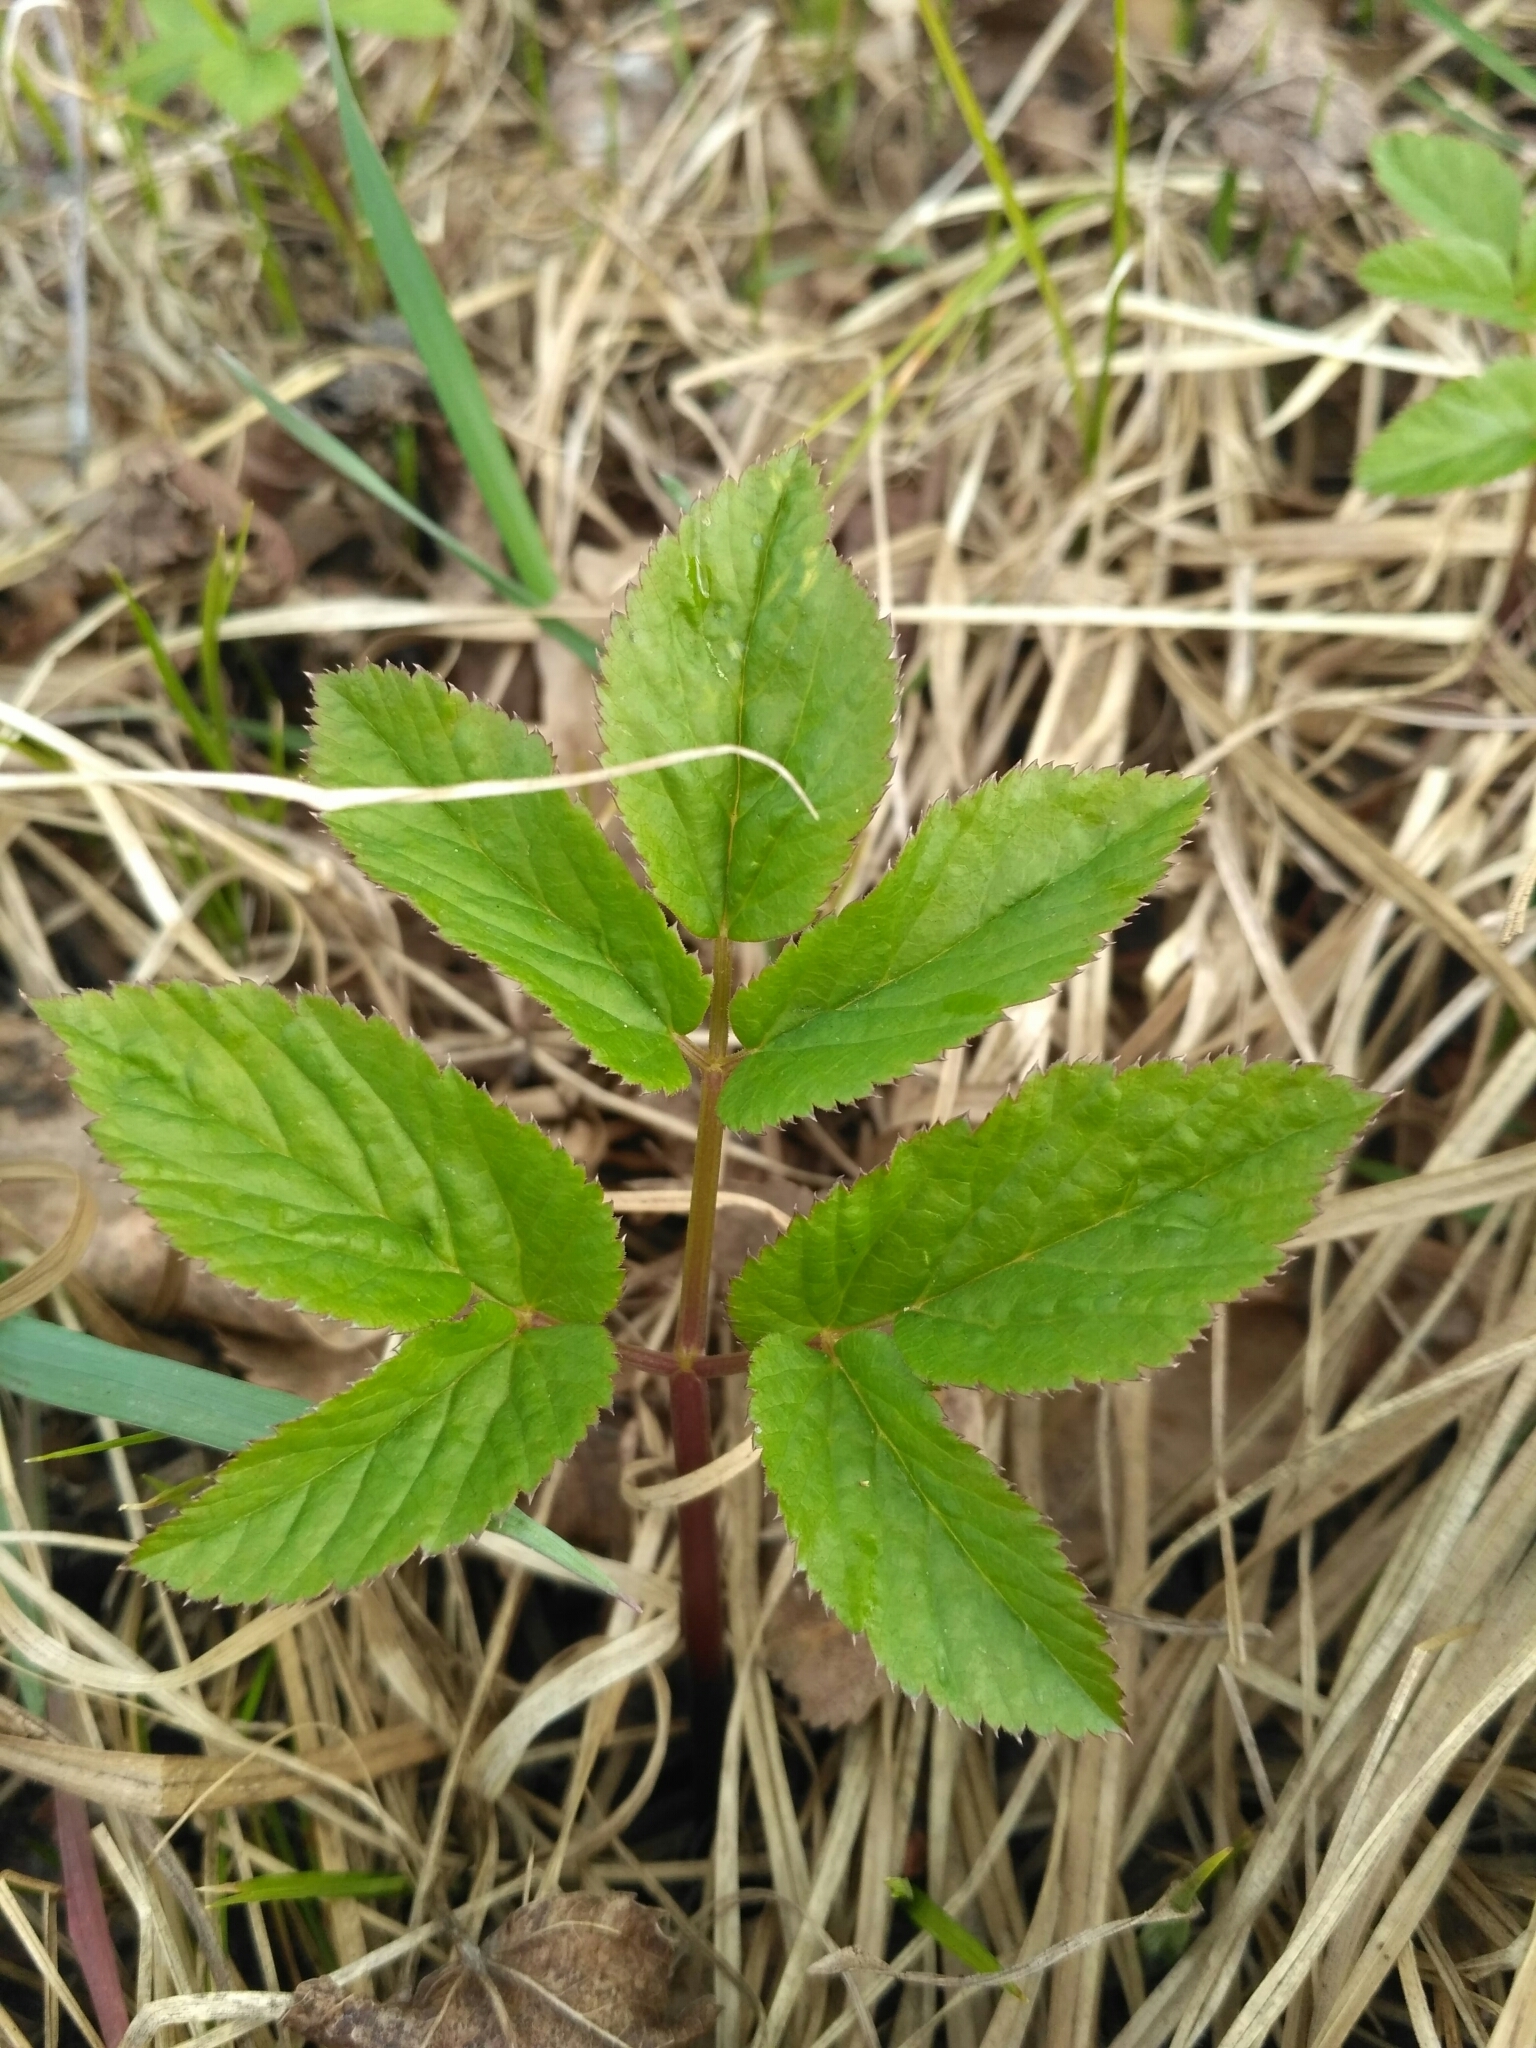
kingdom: Plantae
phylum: Tracheophyta
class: Magnoliopsida
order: Apiales
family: Apiaceae
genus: Aegopodium
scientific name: Aegopodium podagraria
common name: Ground-elder
